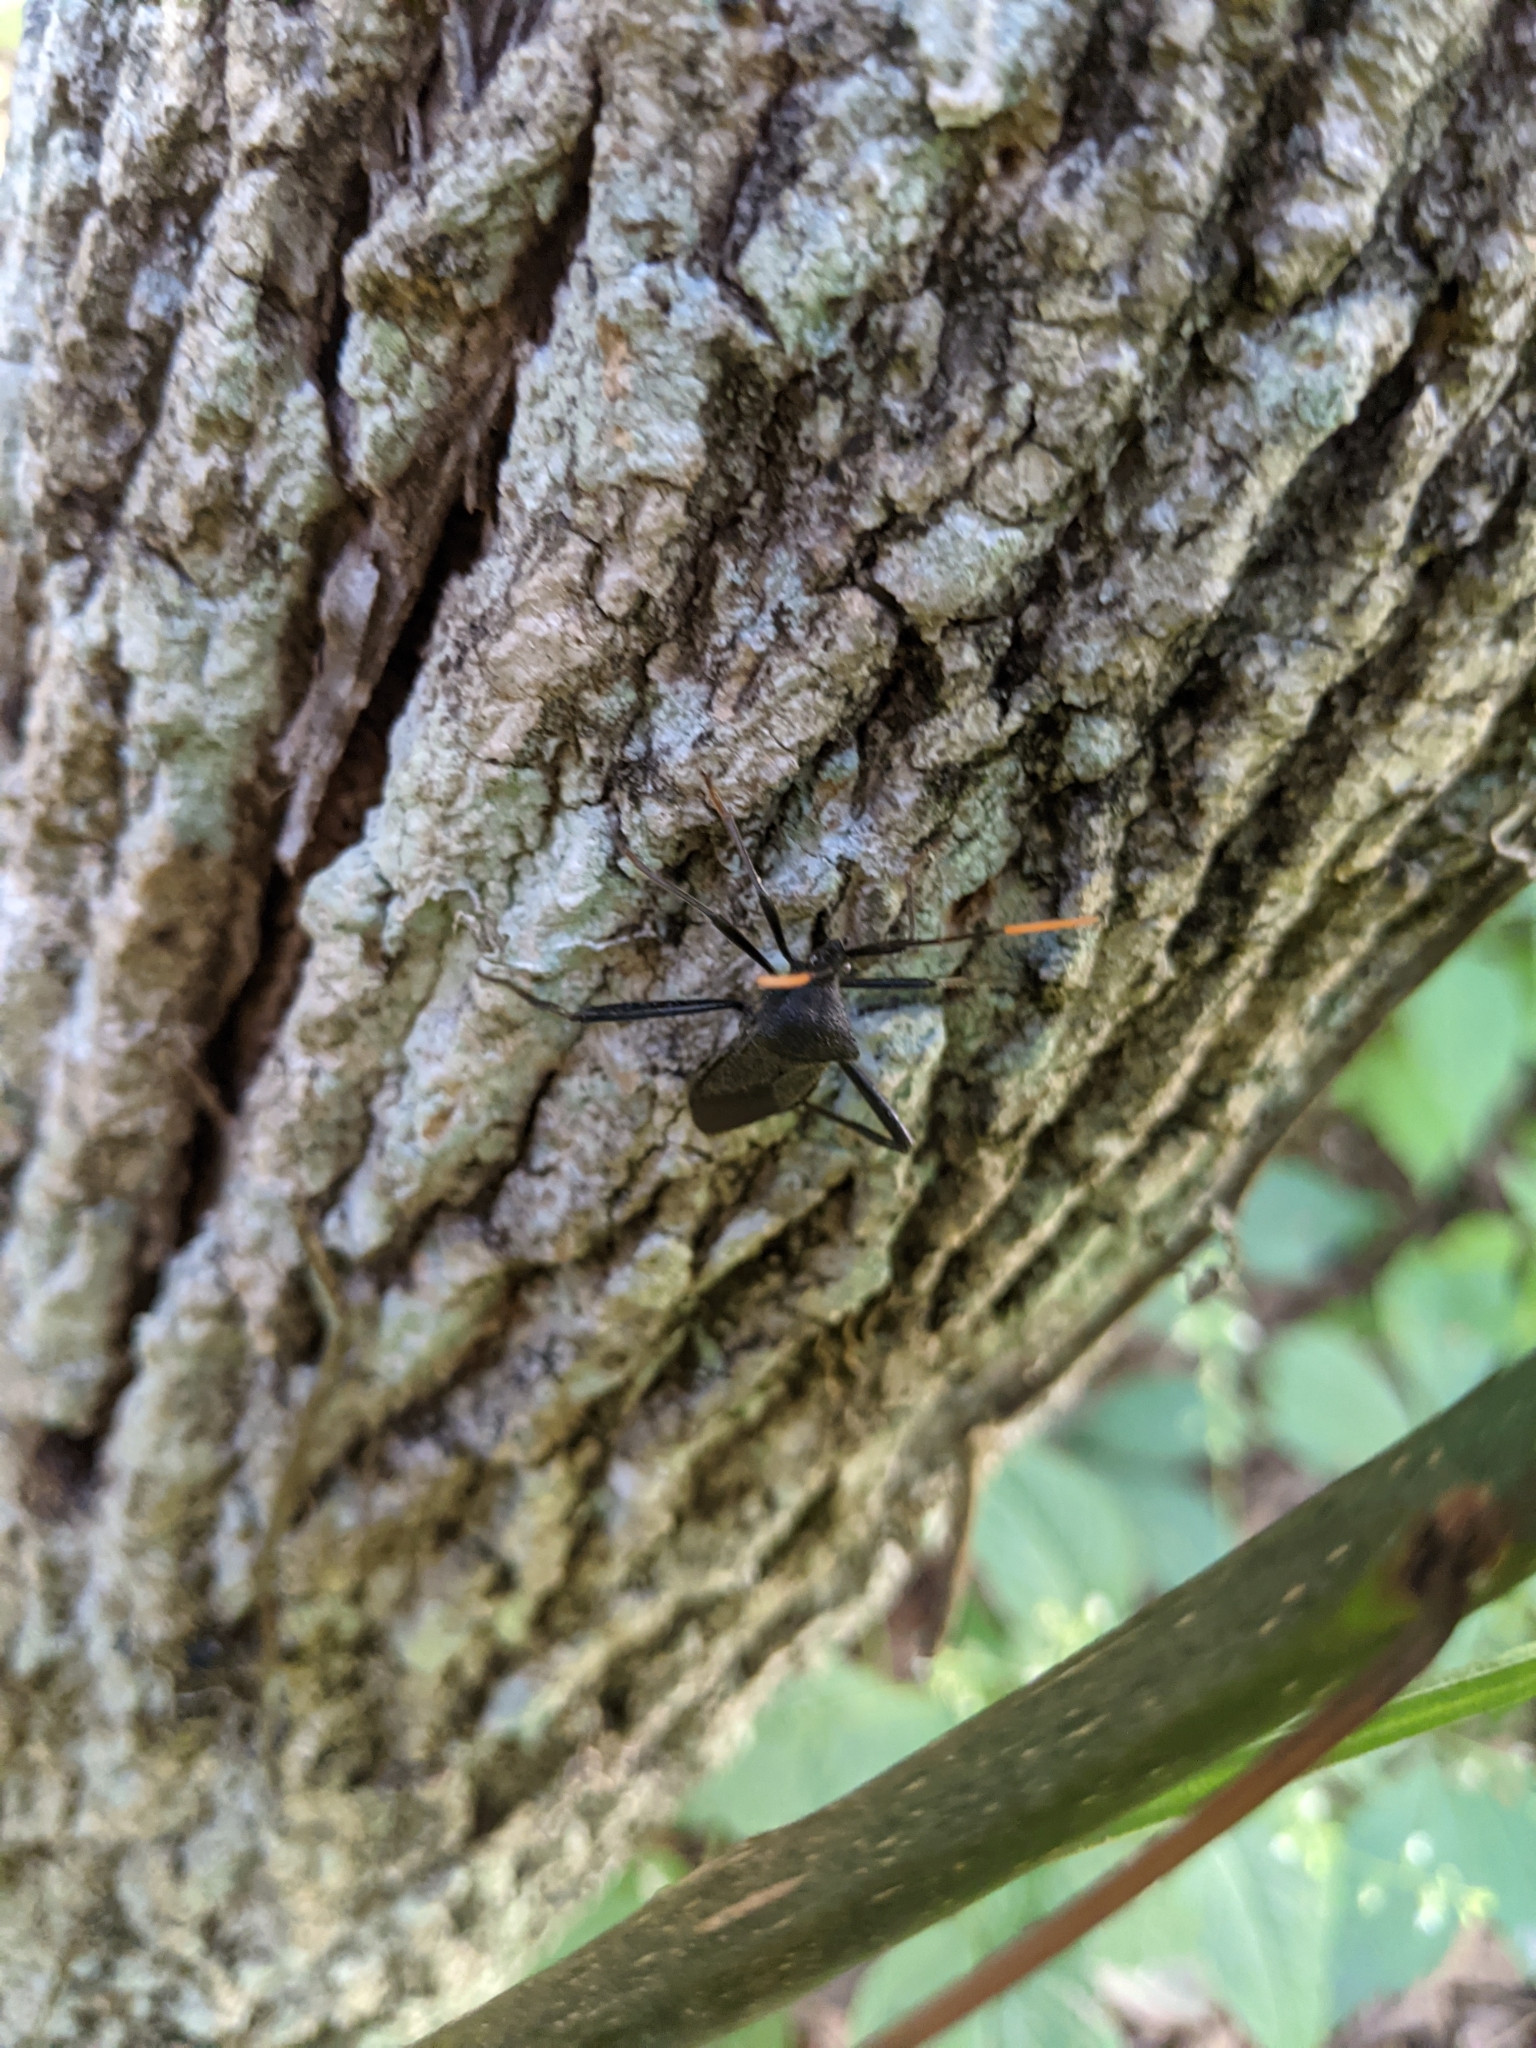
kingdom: Animalia
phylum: Arthropoda
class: Insecta
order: Hemiptera
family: Coreidae
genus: Acanthocephala
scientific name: Acanthocephala terminalis
